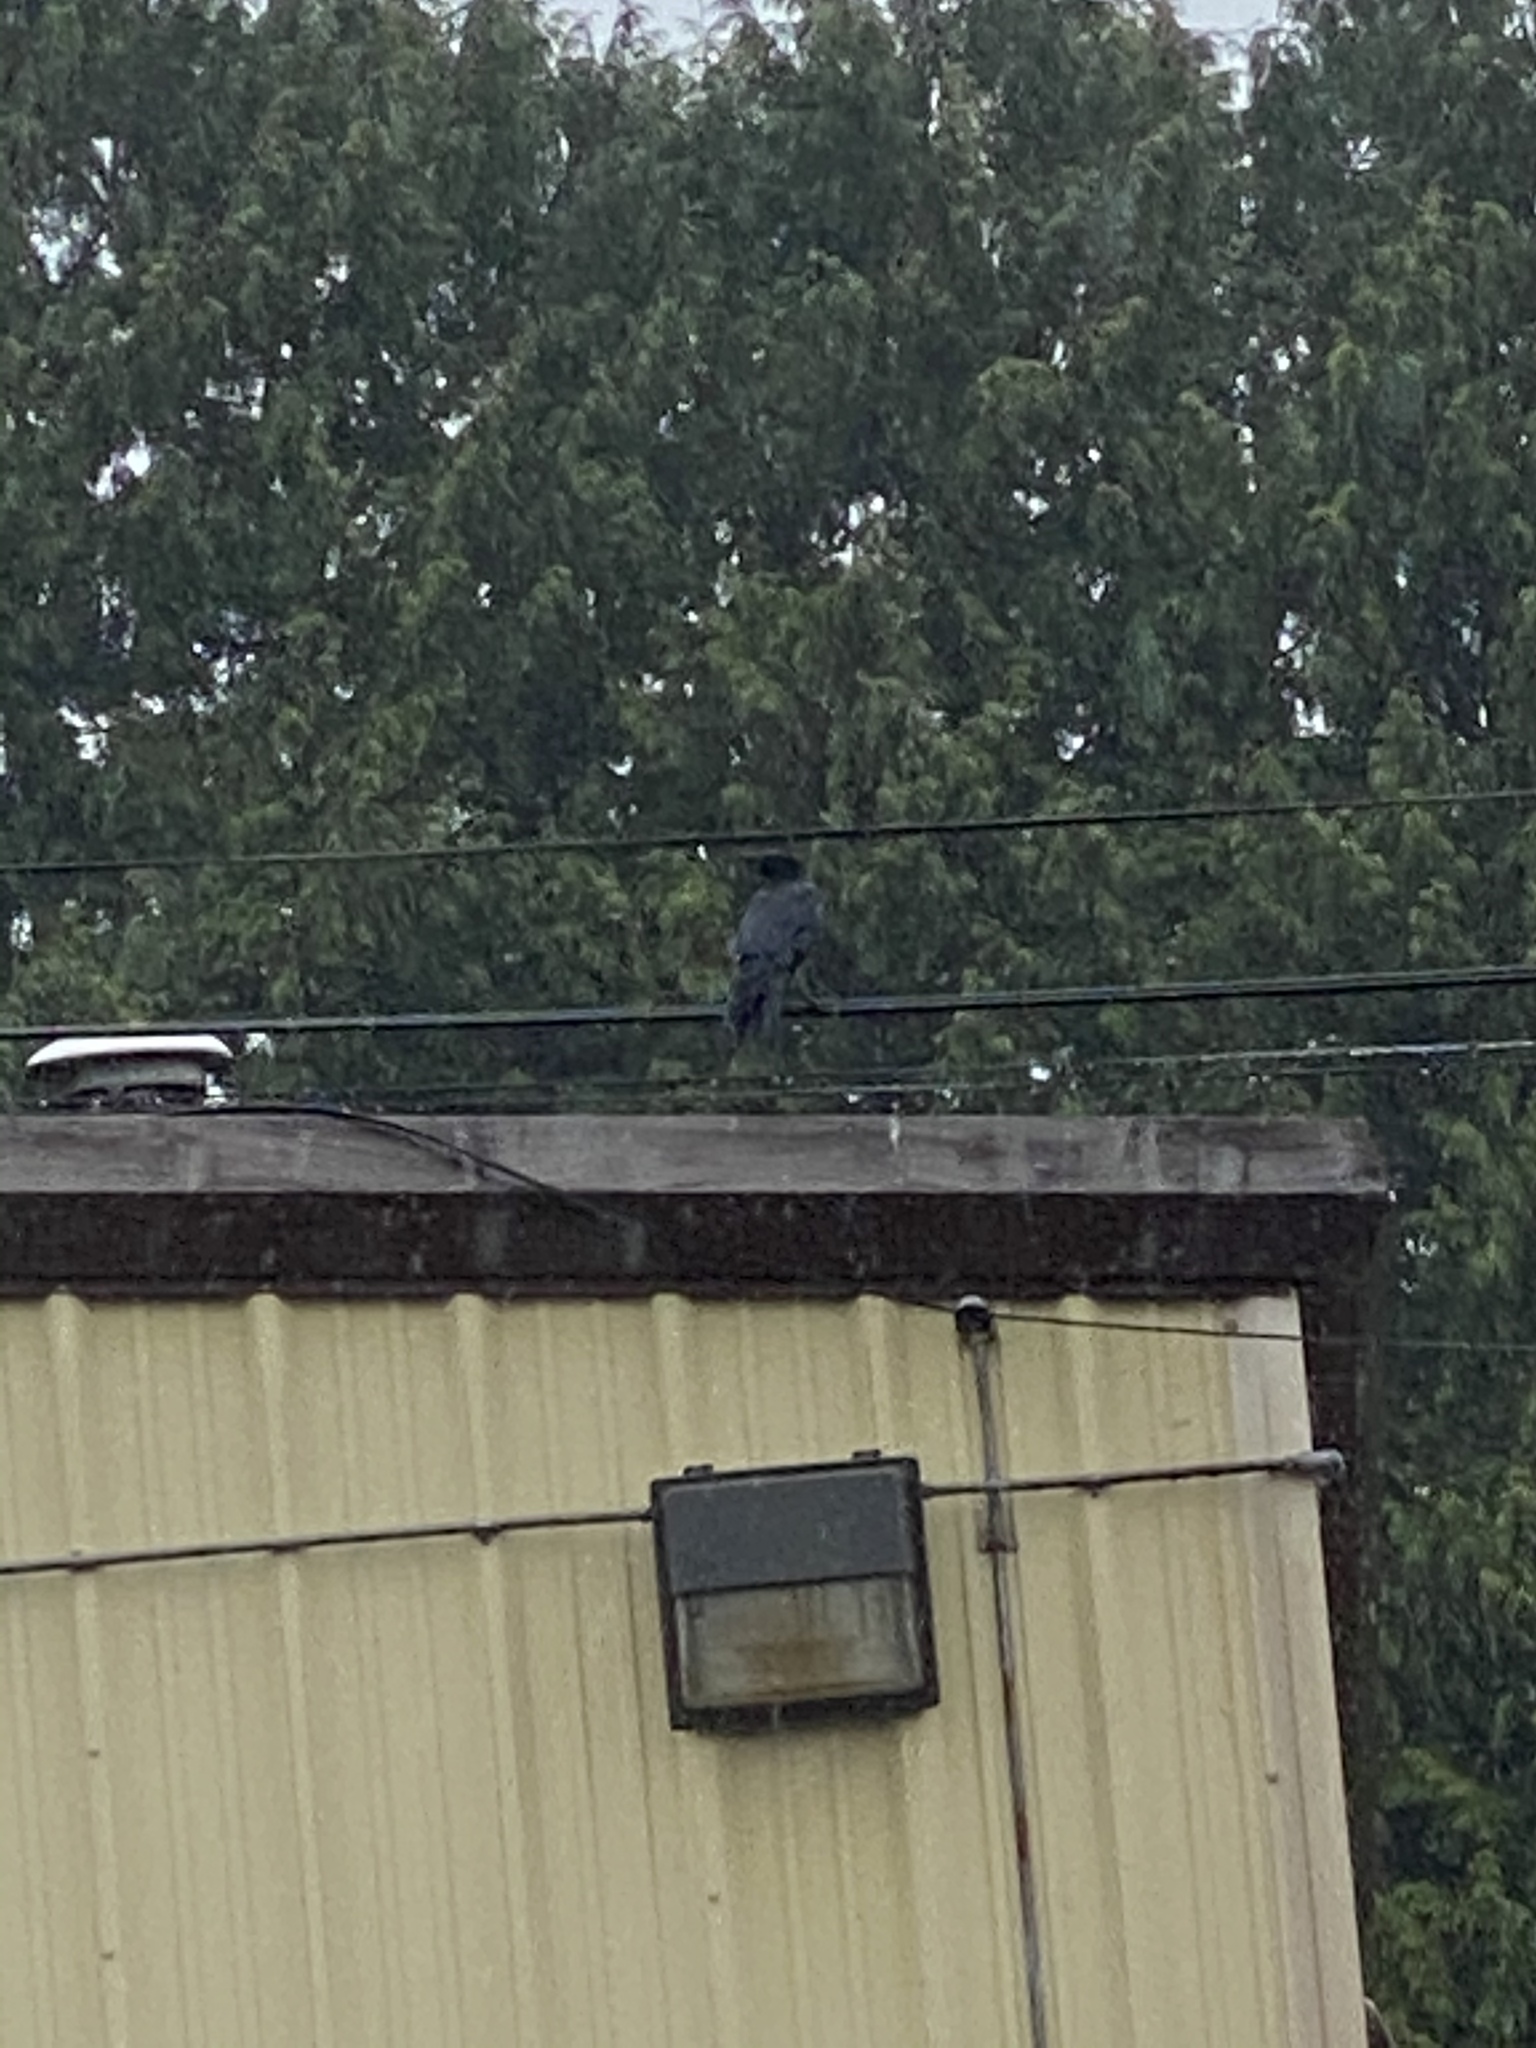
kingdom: Animalia
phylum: Chordata
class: Aves
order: Passeriformes
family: Corvidae
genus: Corvus
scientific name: Corvus brachyrhynchos
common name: American crow
